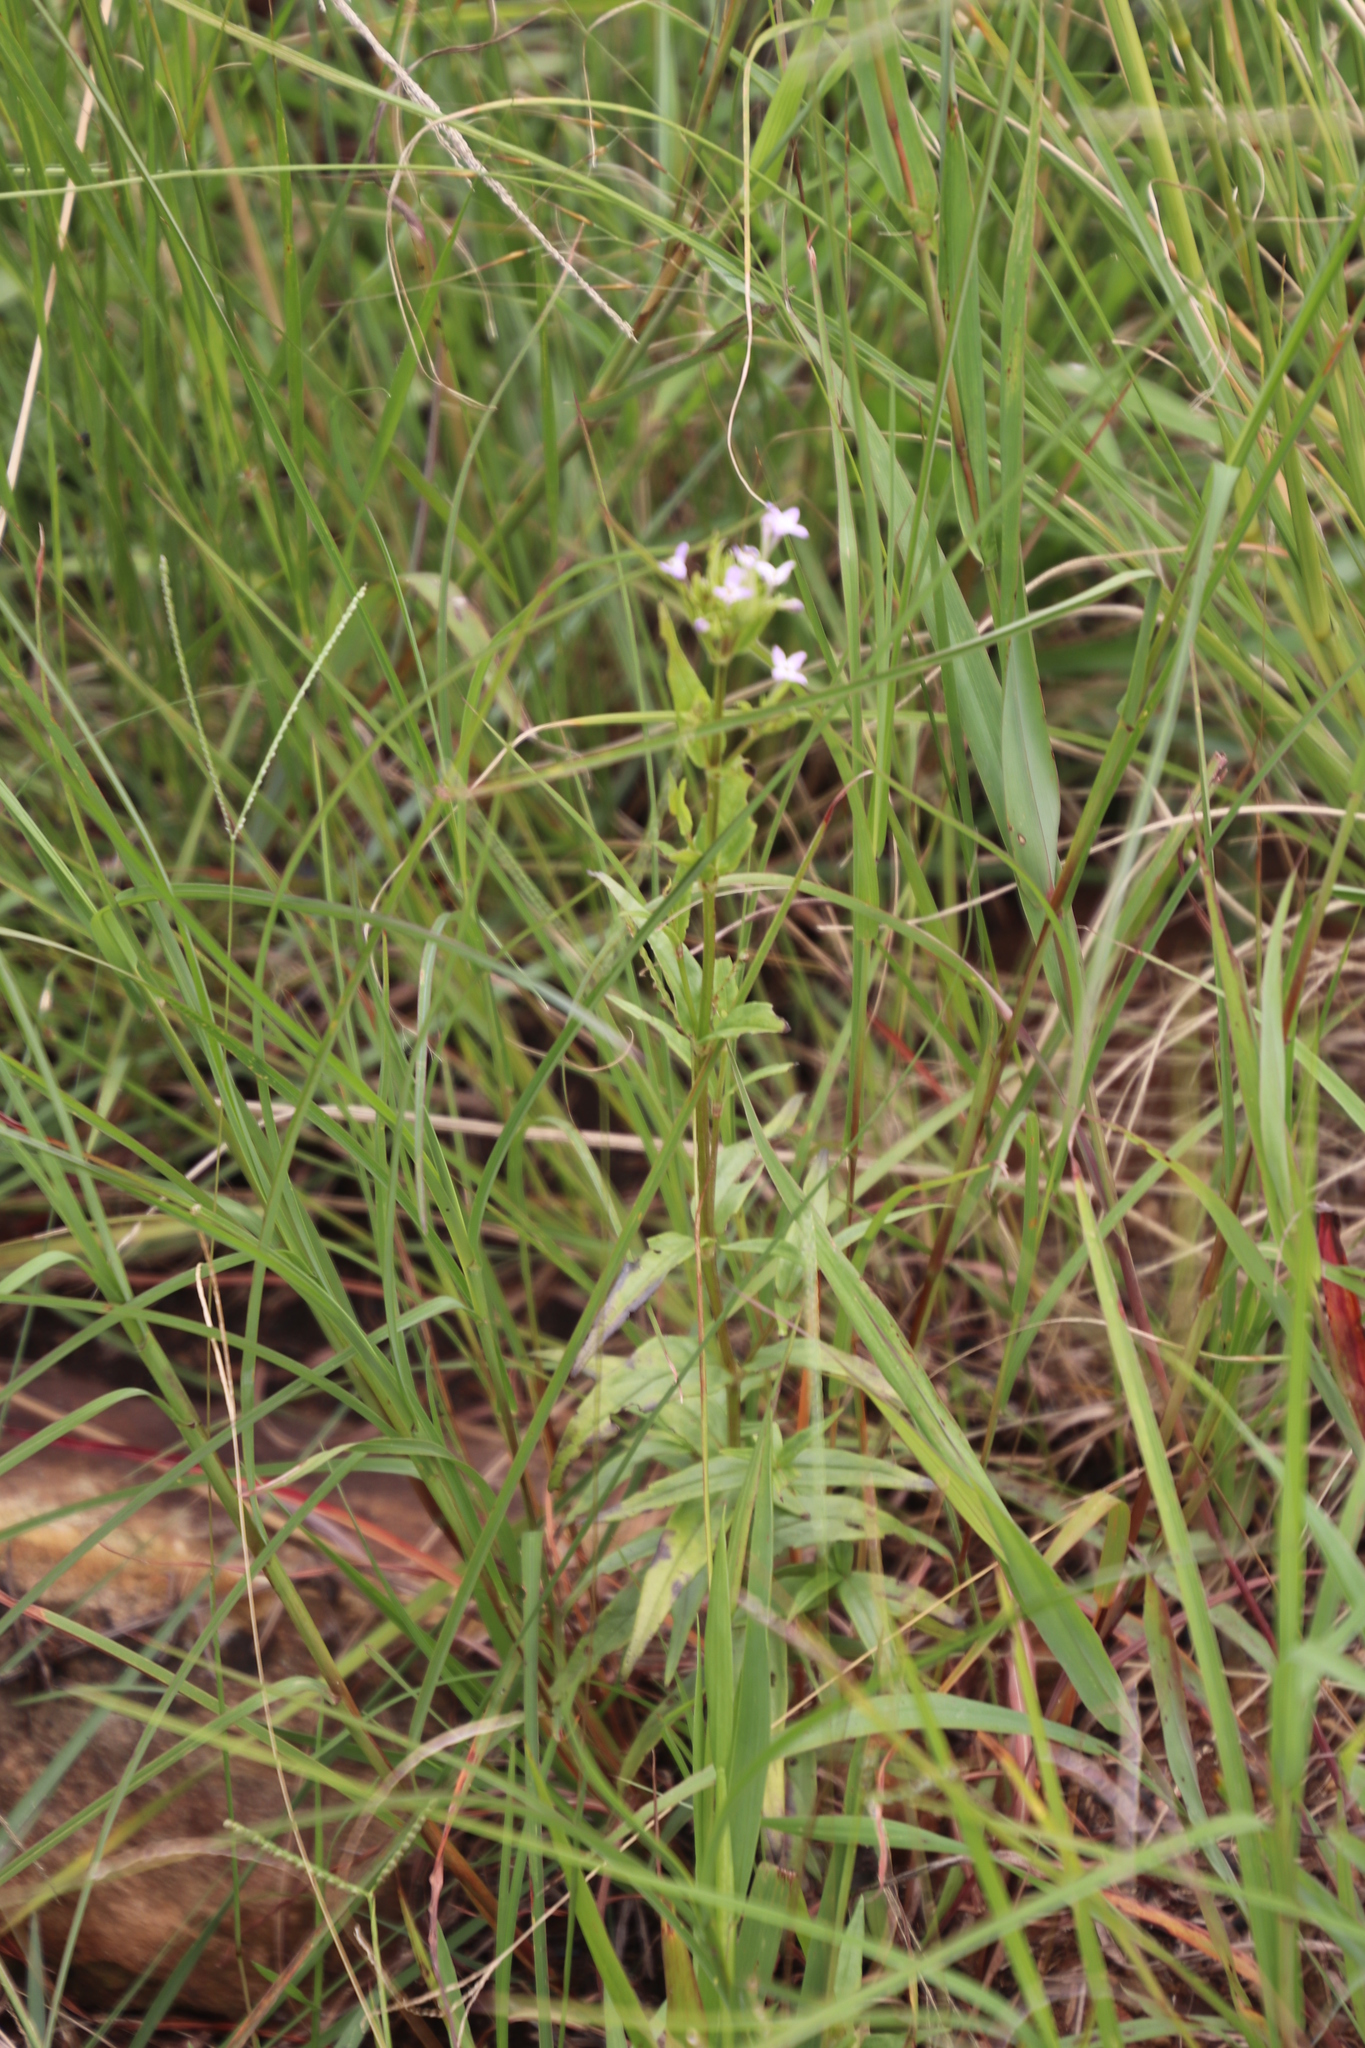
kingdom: Plantae
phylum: Tracheophyta
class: Magnoliopsida
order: Gentianales
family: Rubiaceae
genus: Conostomium
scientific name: Conostomium natalense
